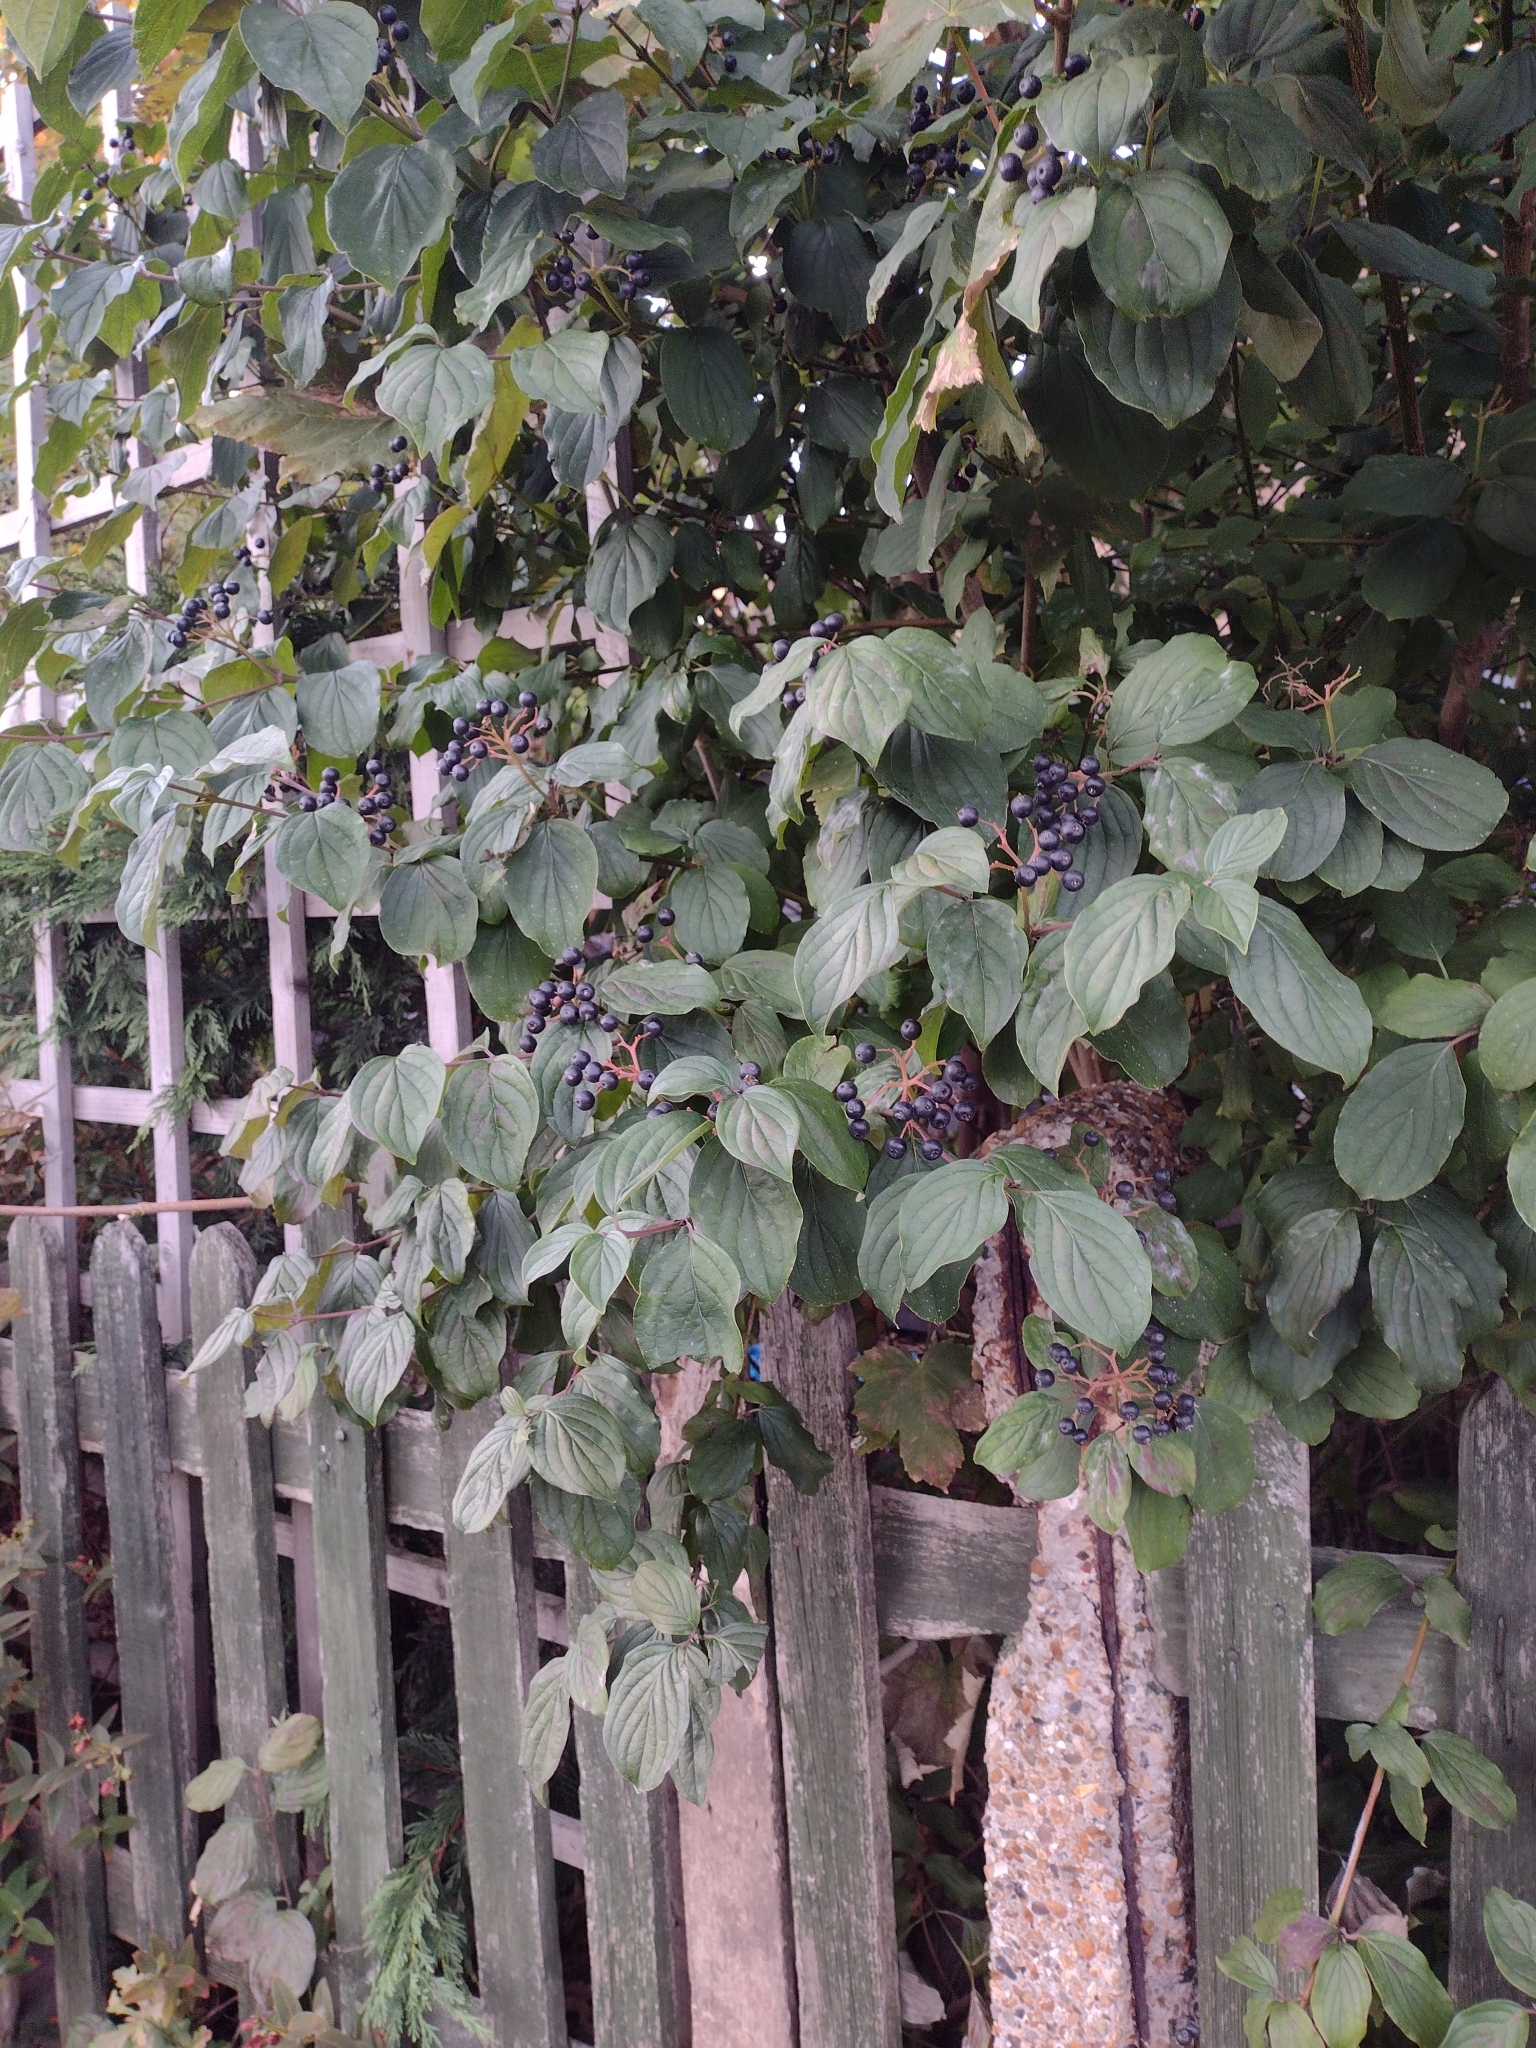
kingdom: Plantae
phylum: Tracheophyta
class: Magnoliopsida
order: Cornales
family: Cornaceae
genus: Cornus
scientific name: Cornus sanguinea
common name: Dogwood
